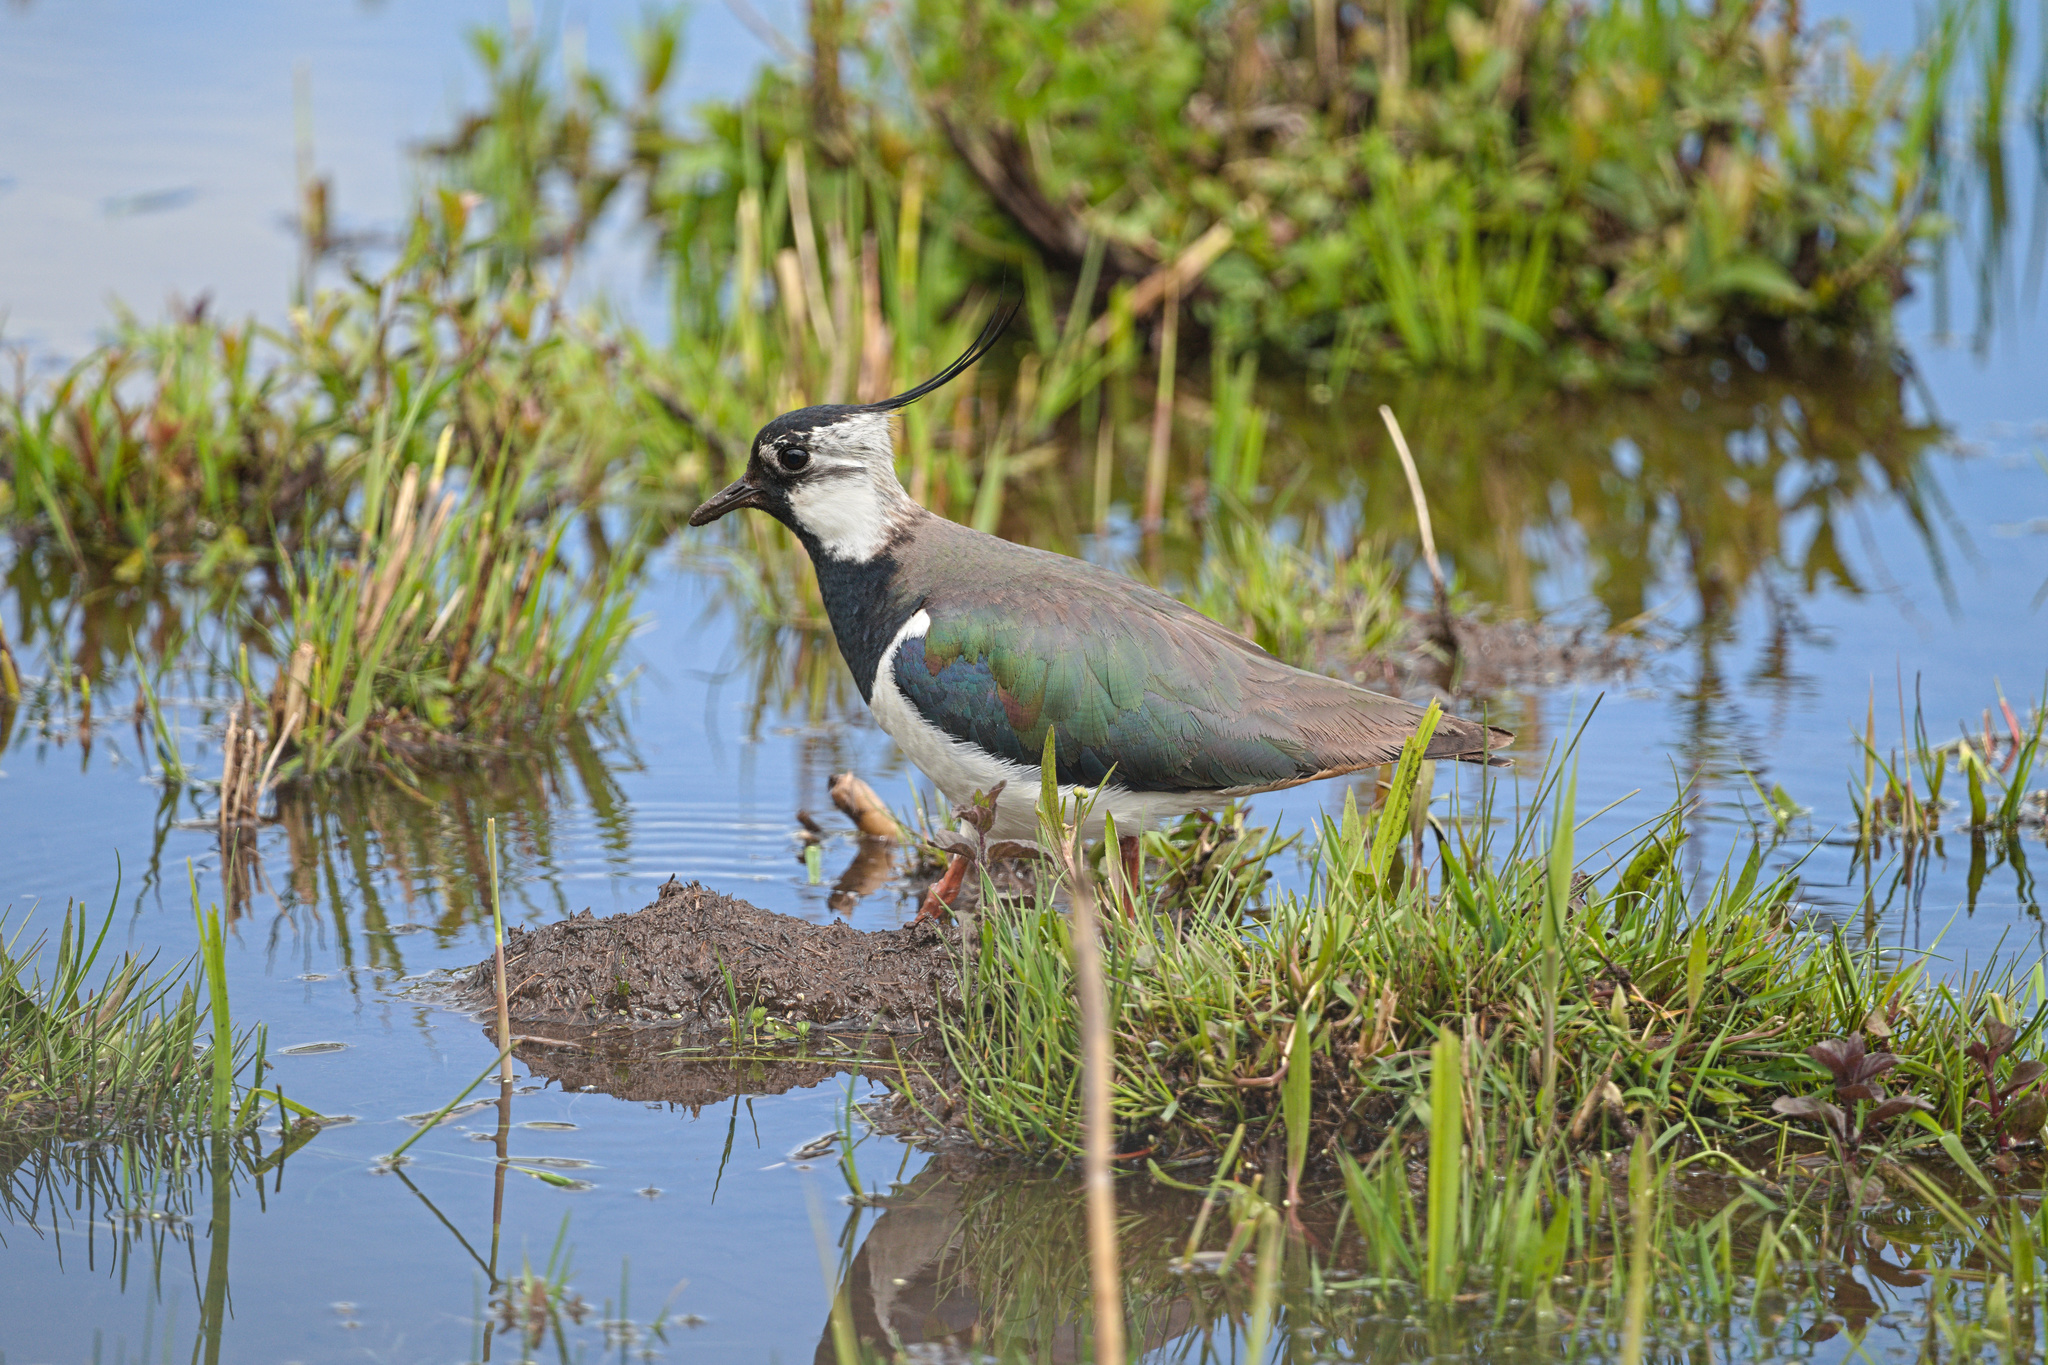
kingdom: Animalia
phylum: Chordata
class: Aves
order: Charadriiformes
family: Charadriidae
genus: Vanellus
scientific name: Vanellus vanellus
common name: Northern lapwing
